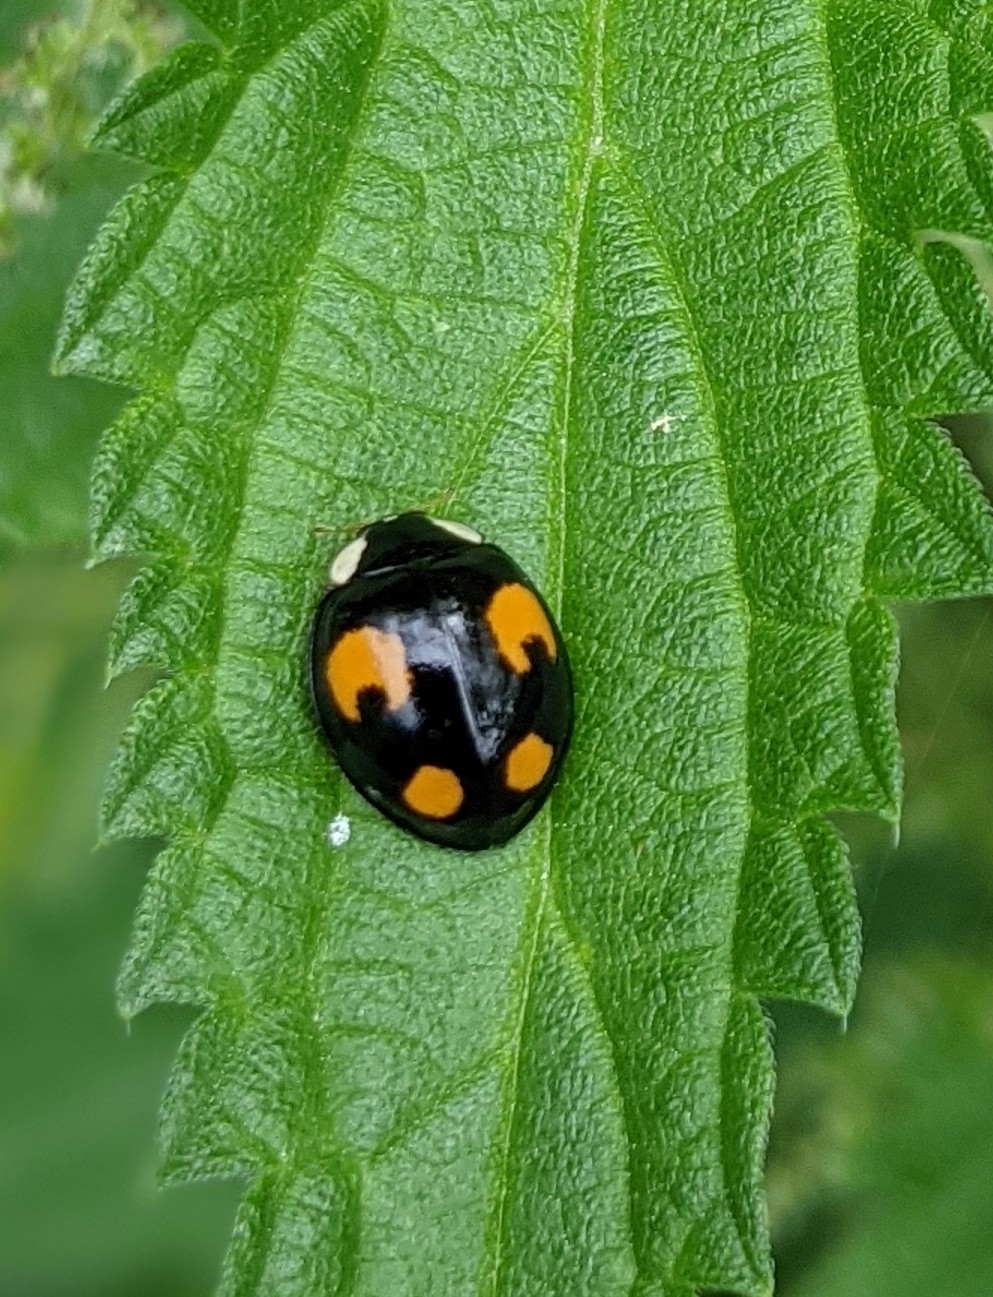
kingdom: Animalia
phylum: Arthropoda
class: Insecta
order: Coleoptera
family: Coccinellidae
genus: Harmonia
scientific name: Harmonia axyridis
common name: Harlequin ladybird
